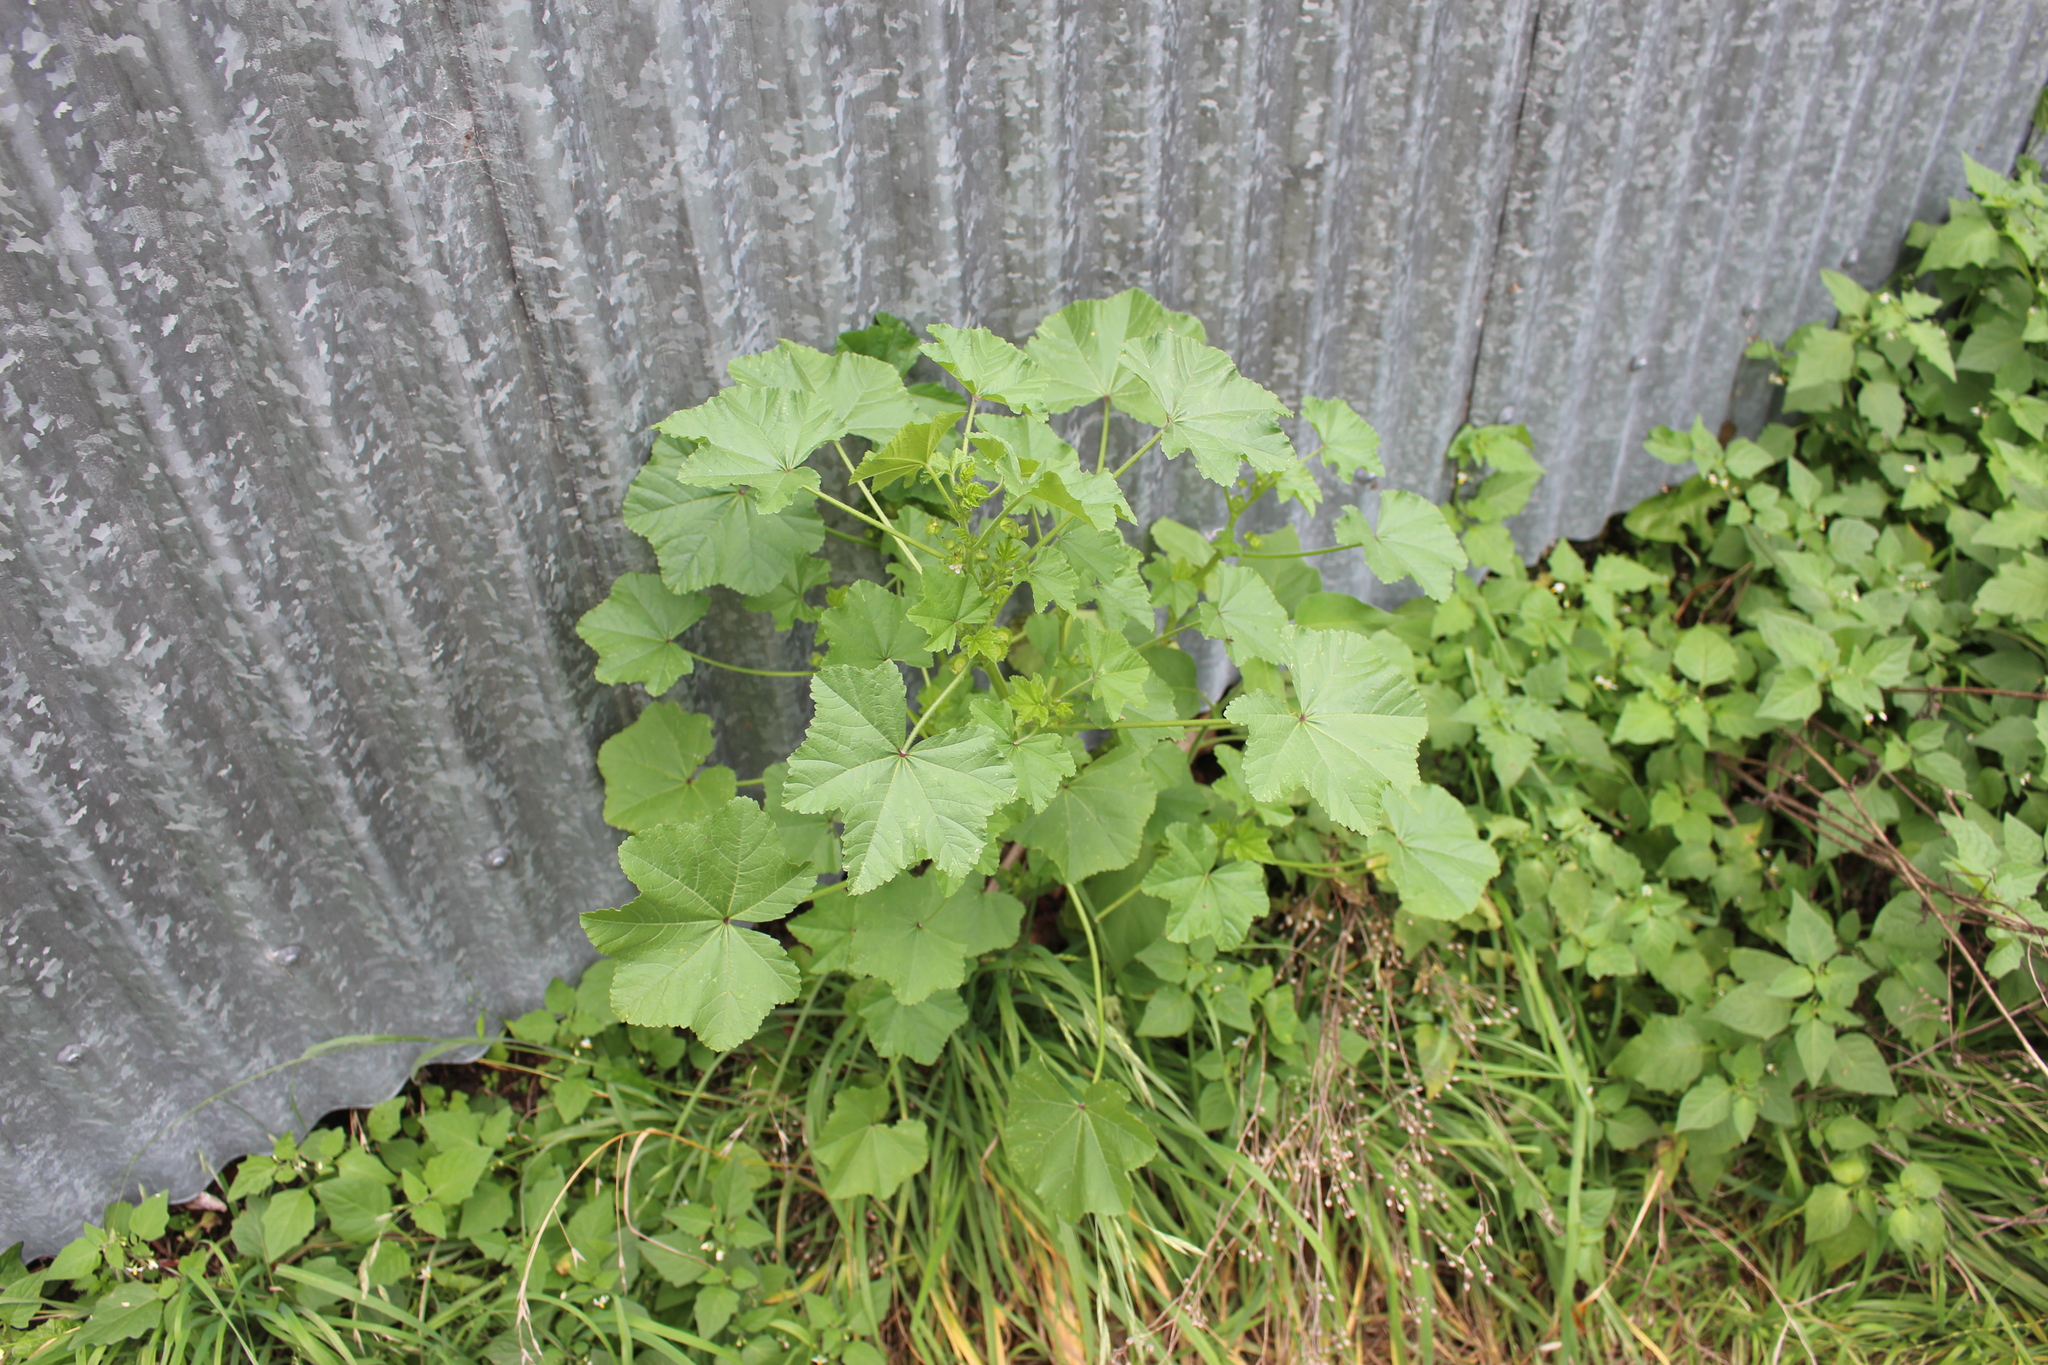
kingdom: Plantae
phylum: Tracheophyta
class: Magnoliopsida
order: Malvales
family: Malvaceae
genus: Malva
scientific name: Malva parviflora
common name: Least mallow
